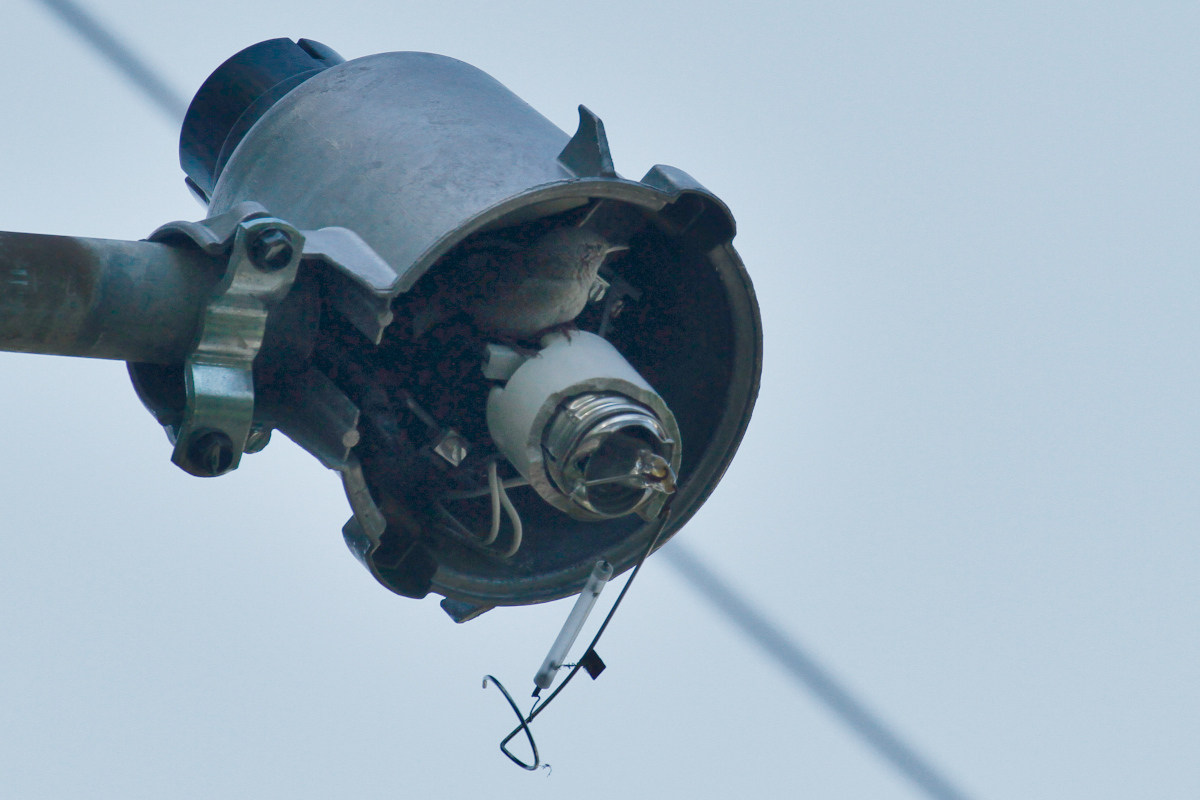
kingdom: Animalia
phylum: Chordata
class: Aves
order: Passeriformes
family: Troglodytidae
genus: Troglodytes
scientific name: Troglodytes aedon
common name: House wren
